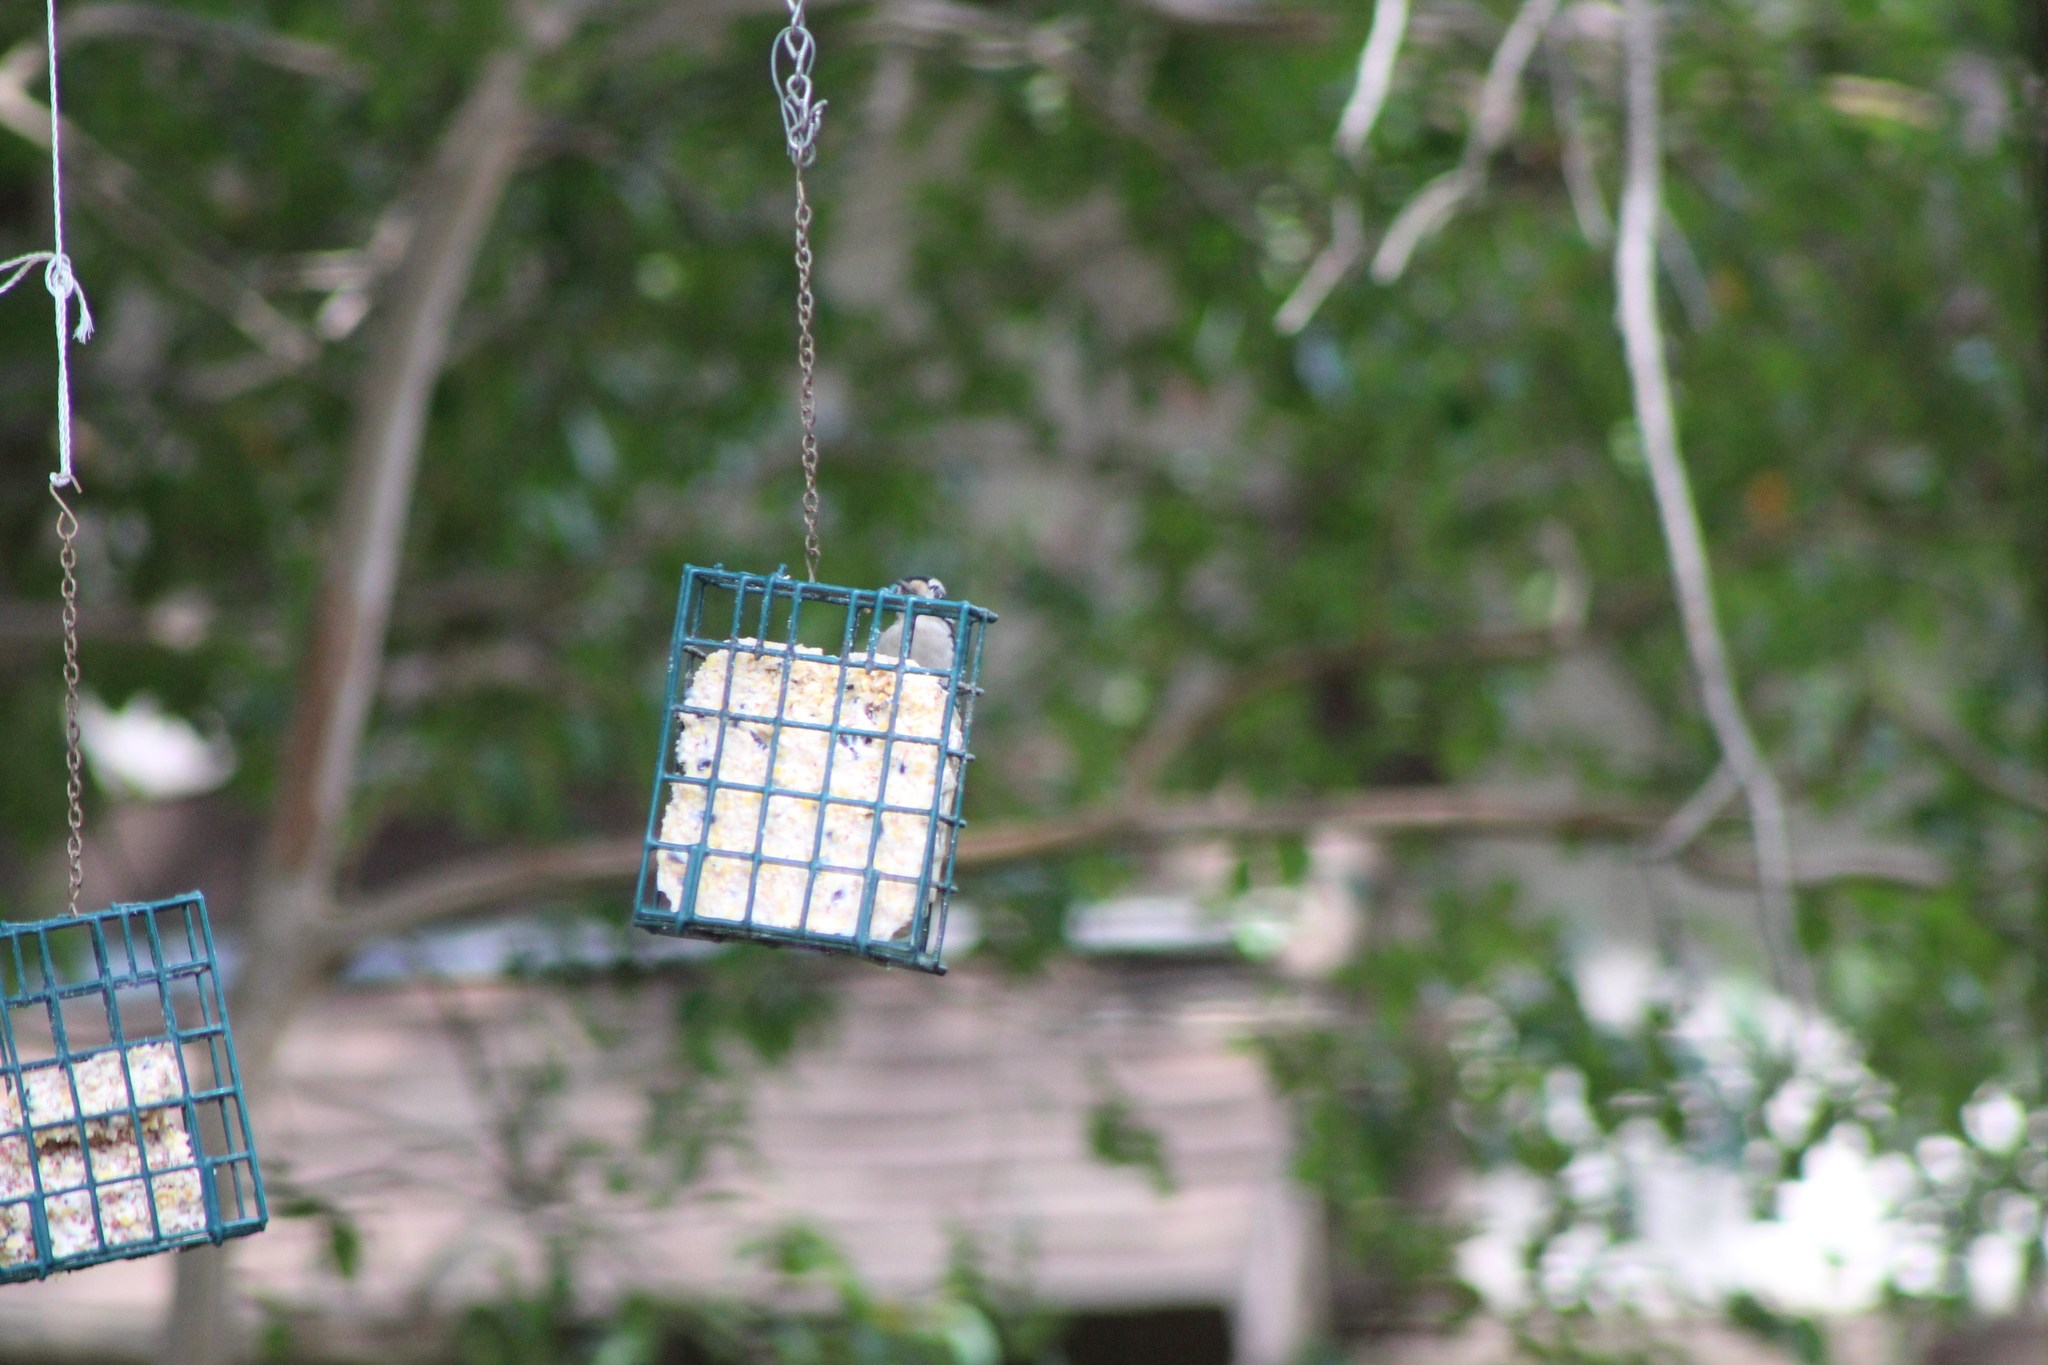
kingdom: Animalia
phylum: Chordata
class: Aves
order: Piciformes
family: Picidae
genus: Dryobates
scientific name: Dryobates pubescens
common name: Downy woodpecker
